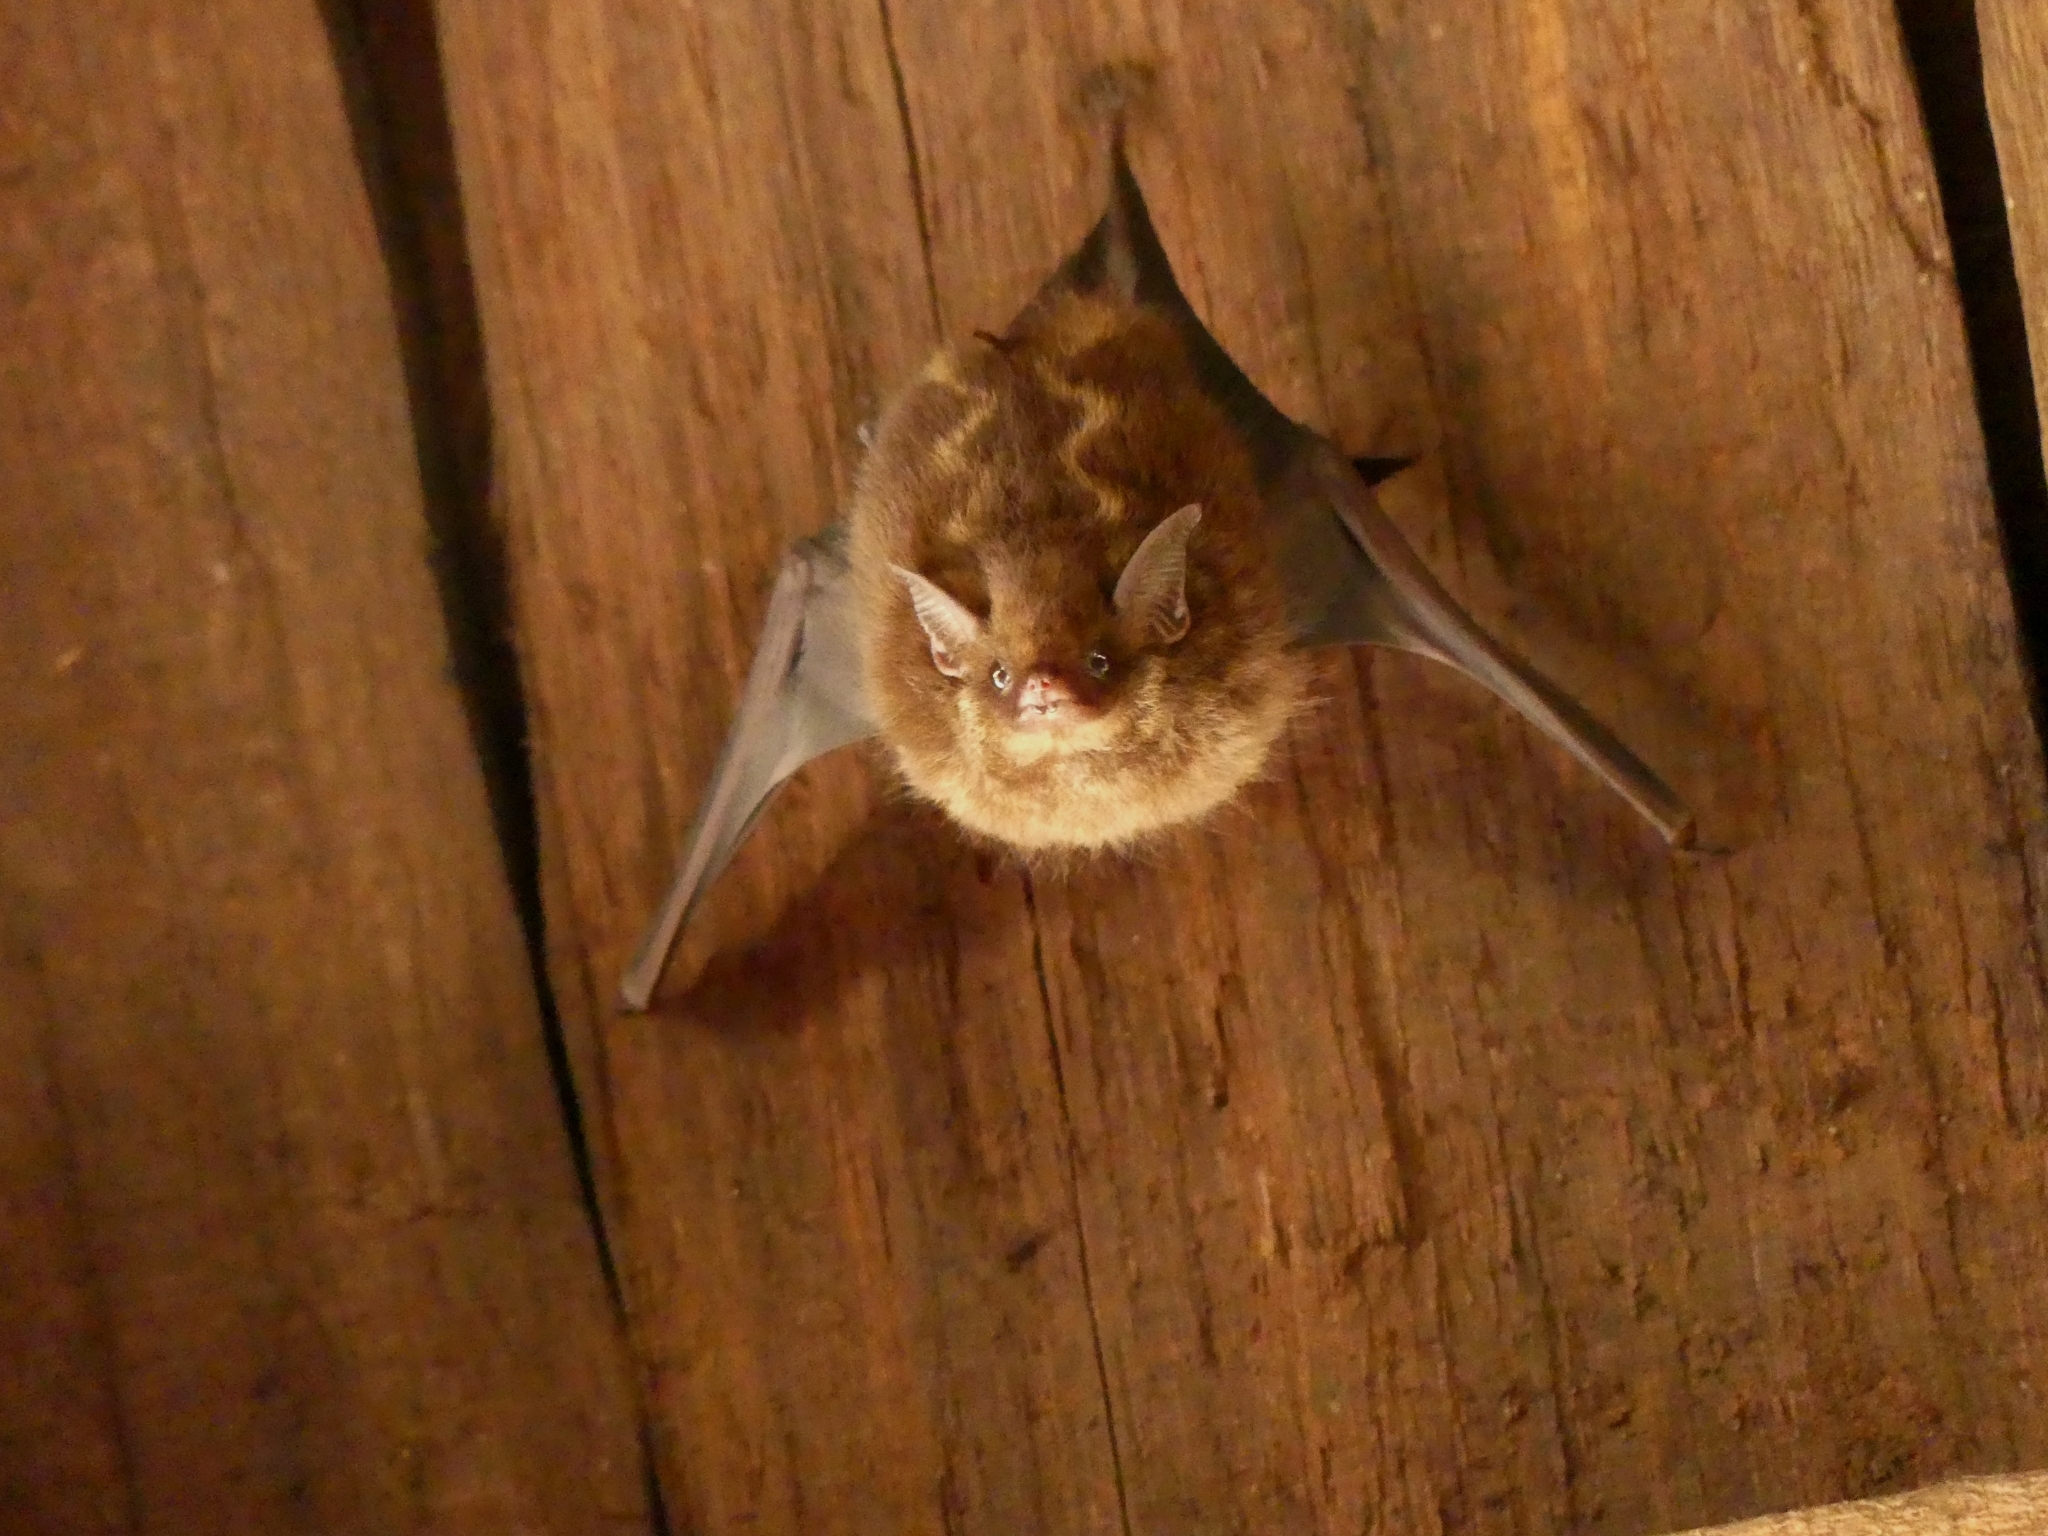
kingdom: Animalia
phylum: Chordata
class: Mammalia
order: Chiroptera
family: Emballonuridae
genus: Saccopteryx
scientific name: Saccopteryx
